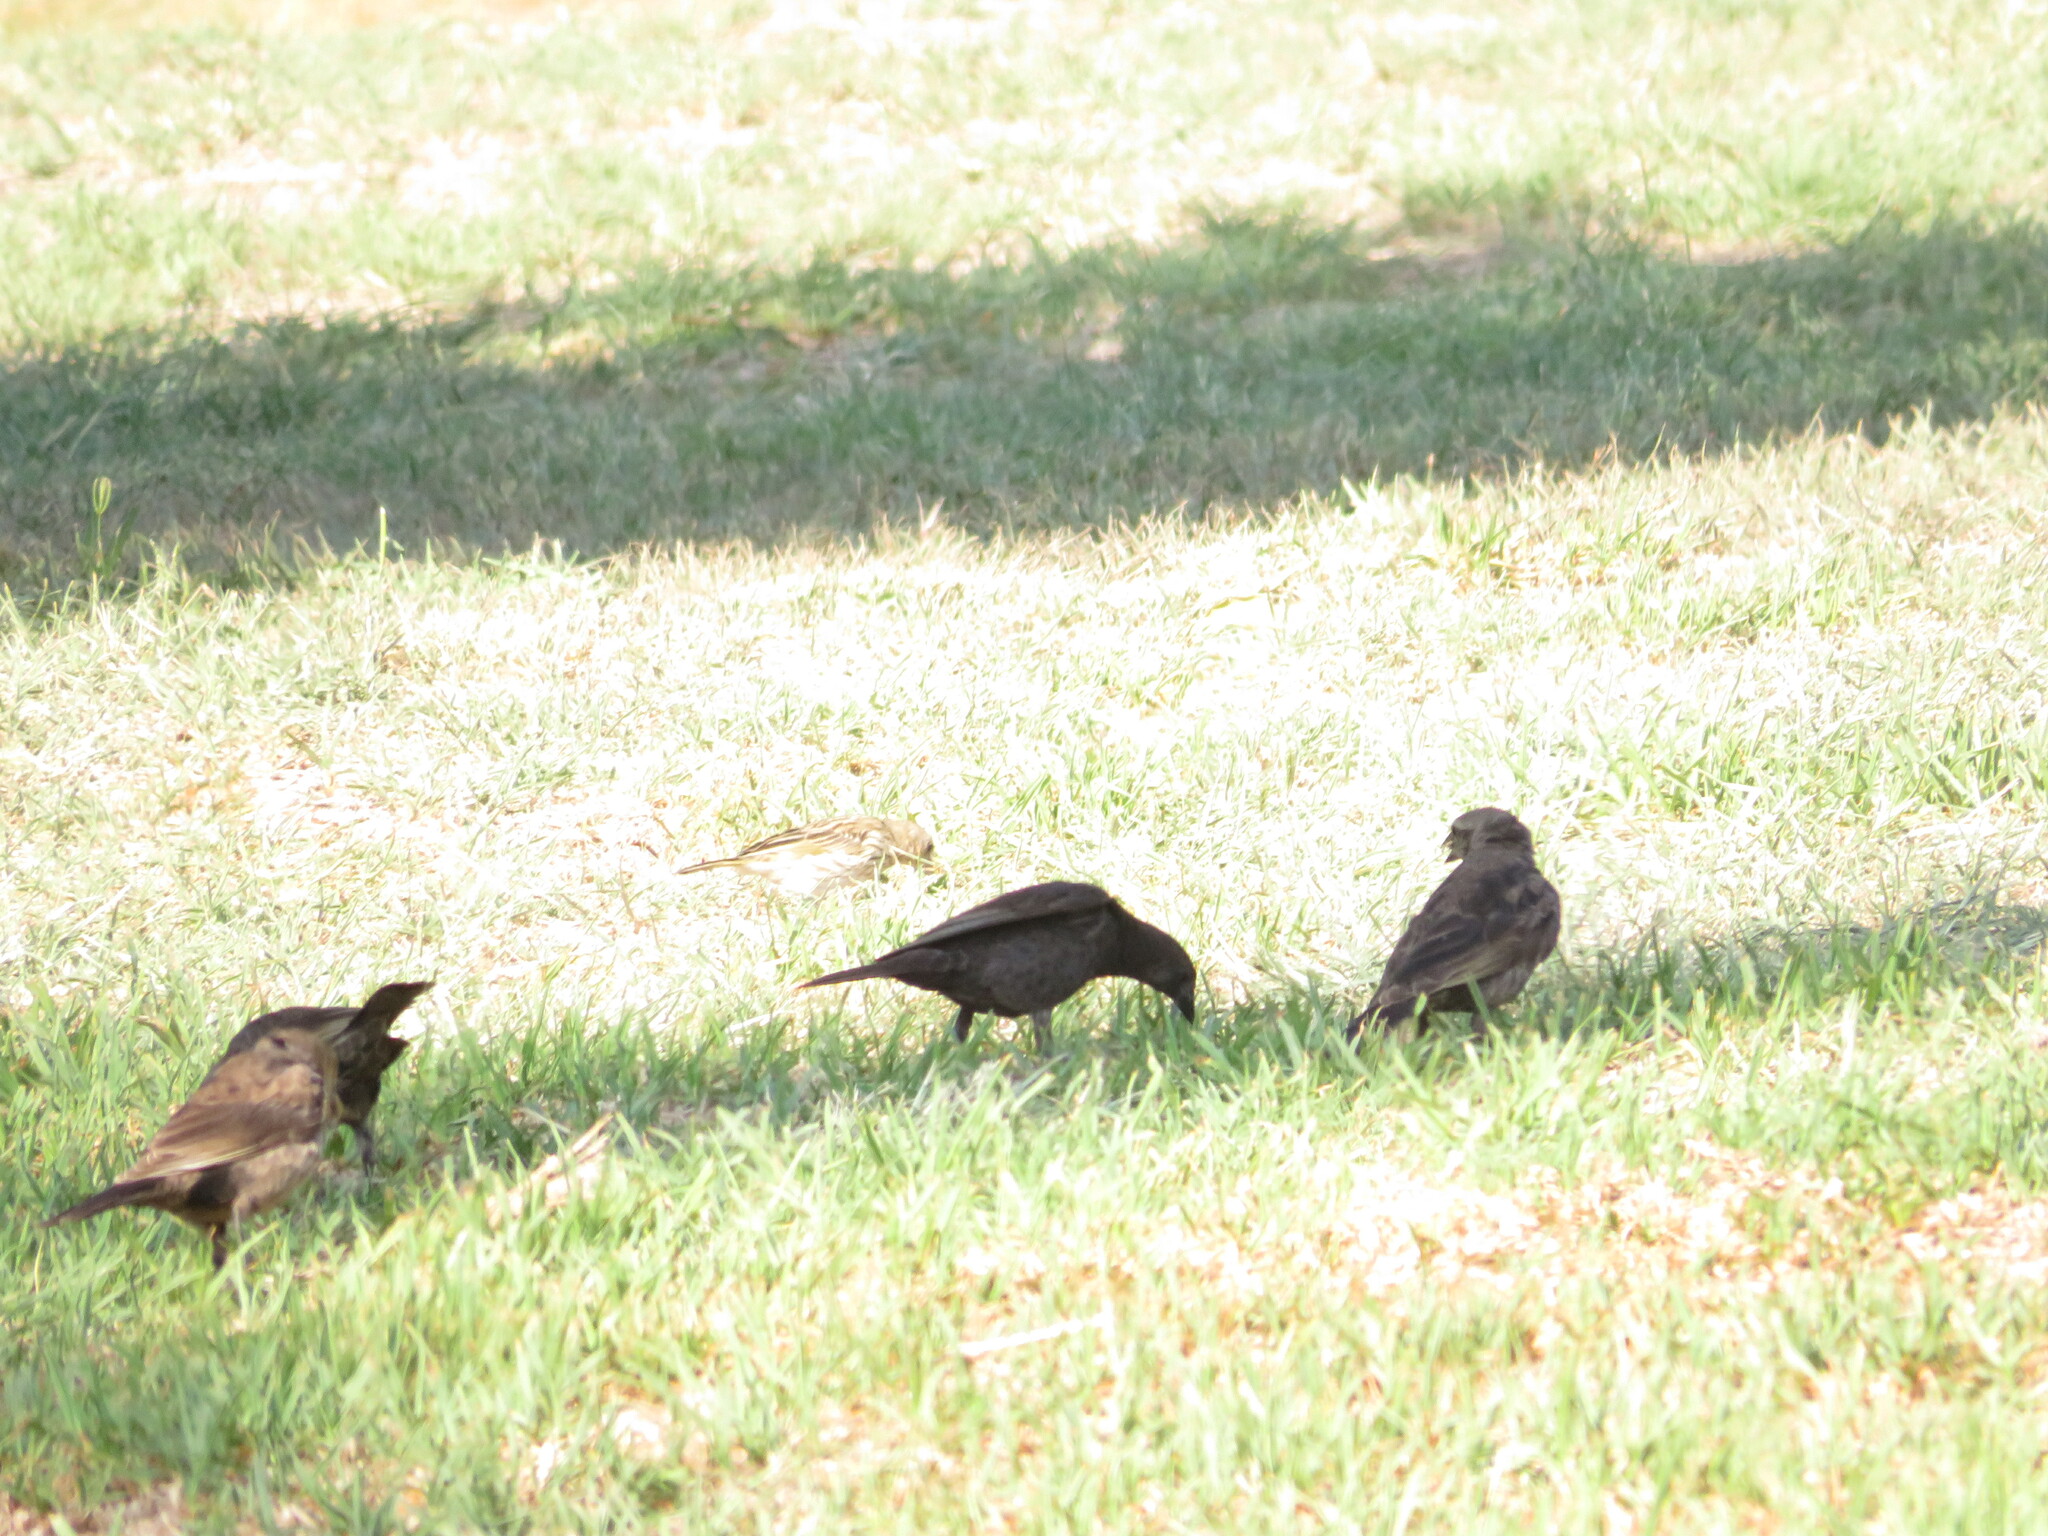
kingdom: Animalia
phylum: Chordata
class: Aves
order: Passeriformes
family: Icteridae
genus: Molothrus
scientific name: Molothrus bonariensis
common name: Shiny cowbird
